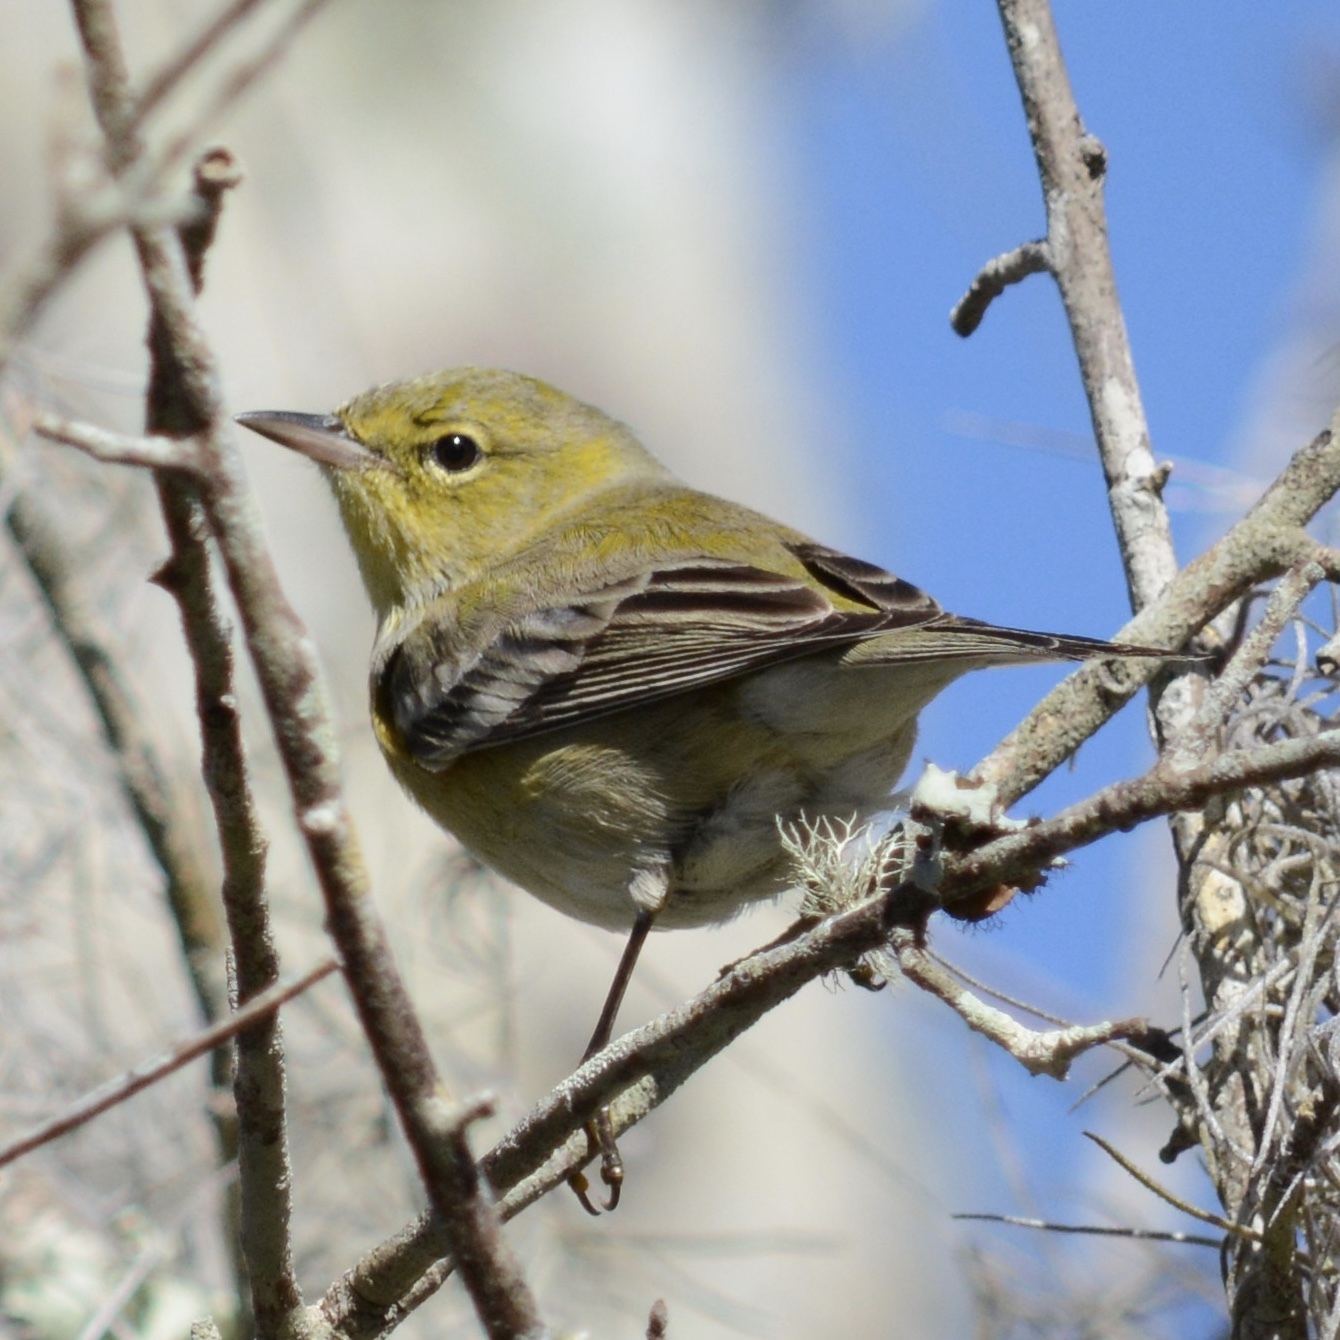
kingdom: Animalia
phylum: Chordata
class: Aves
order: Passeriformes
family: Parulidae
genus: Setophaga
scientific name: Setophaga pinus
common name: Pine warbler
